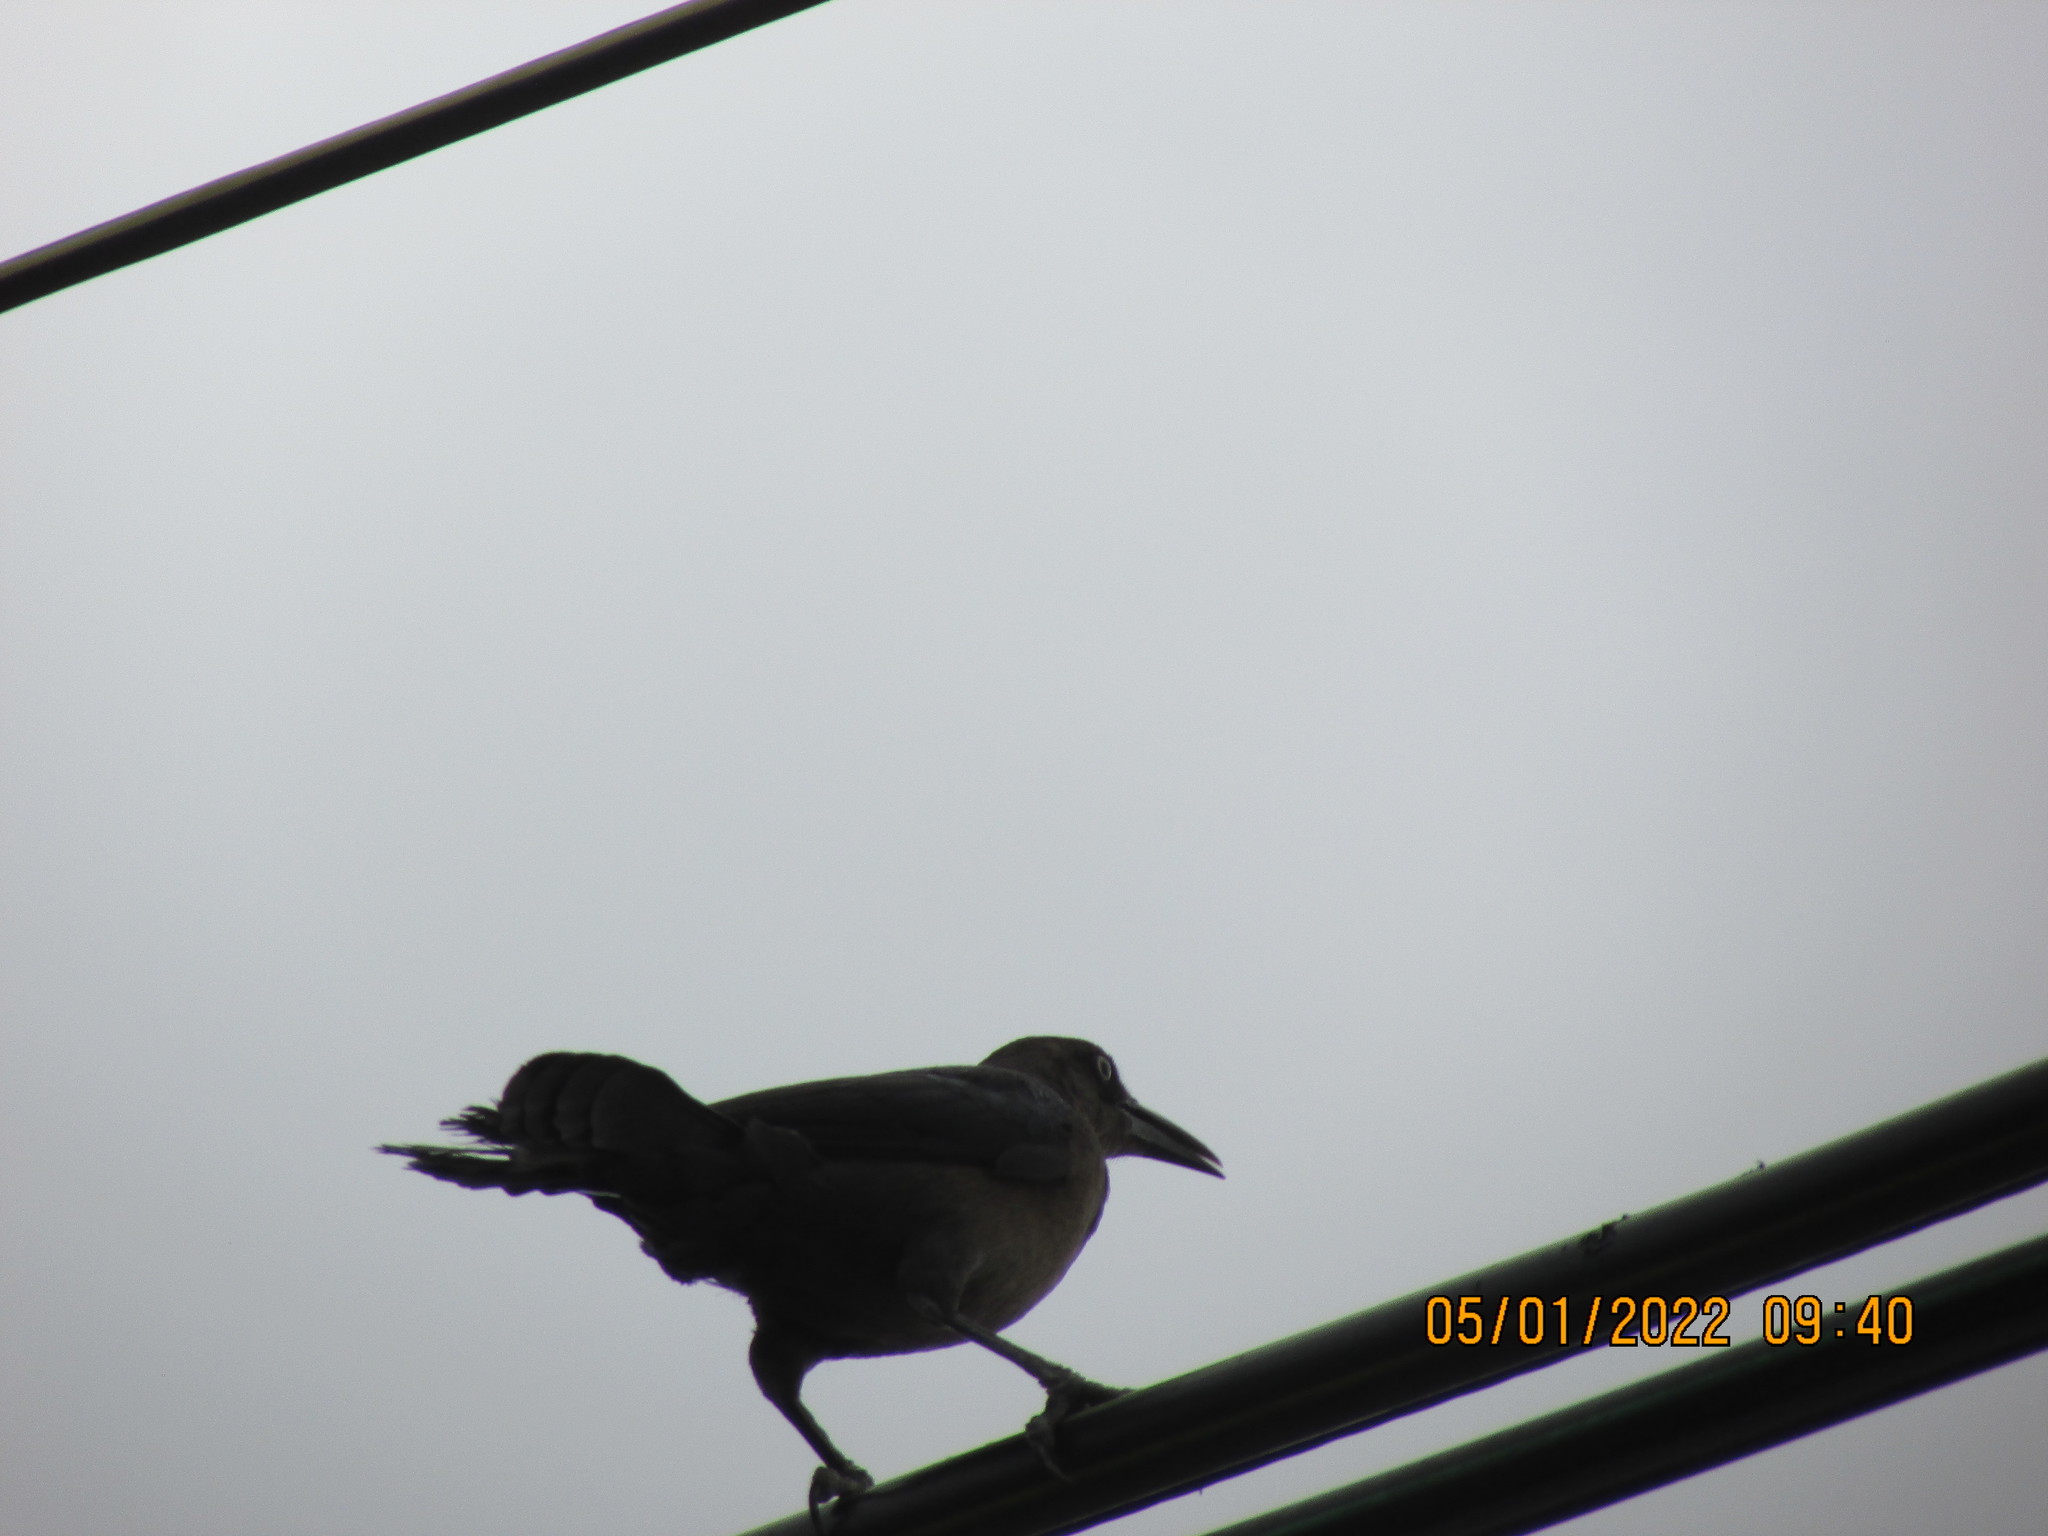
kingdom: Animalia
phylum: Chordata
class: Aves
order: Passeriformes
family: Icteridae
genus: Quiscalus
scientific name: Quiscalus mexicanus
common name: Great-tailed grackle
